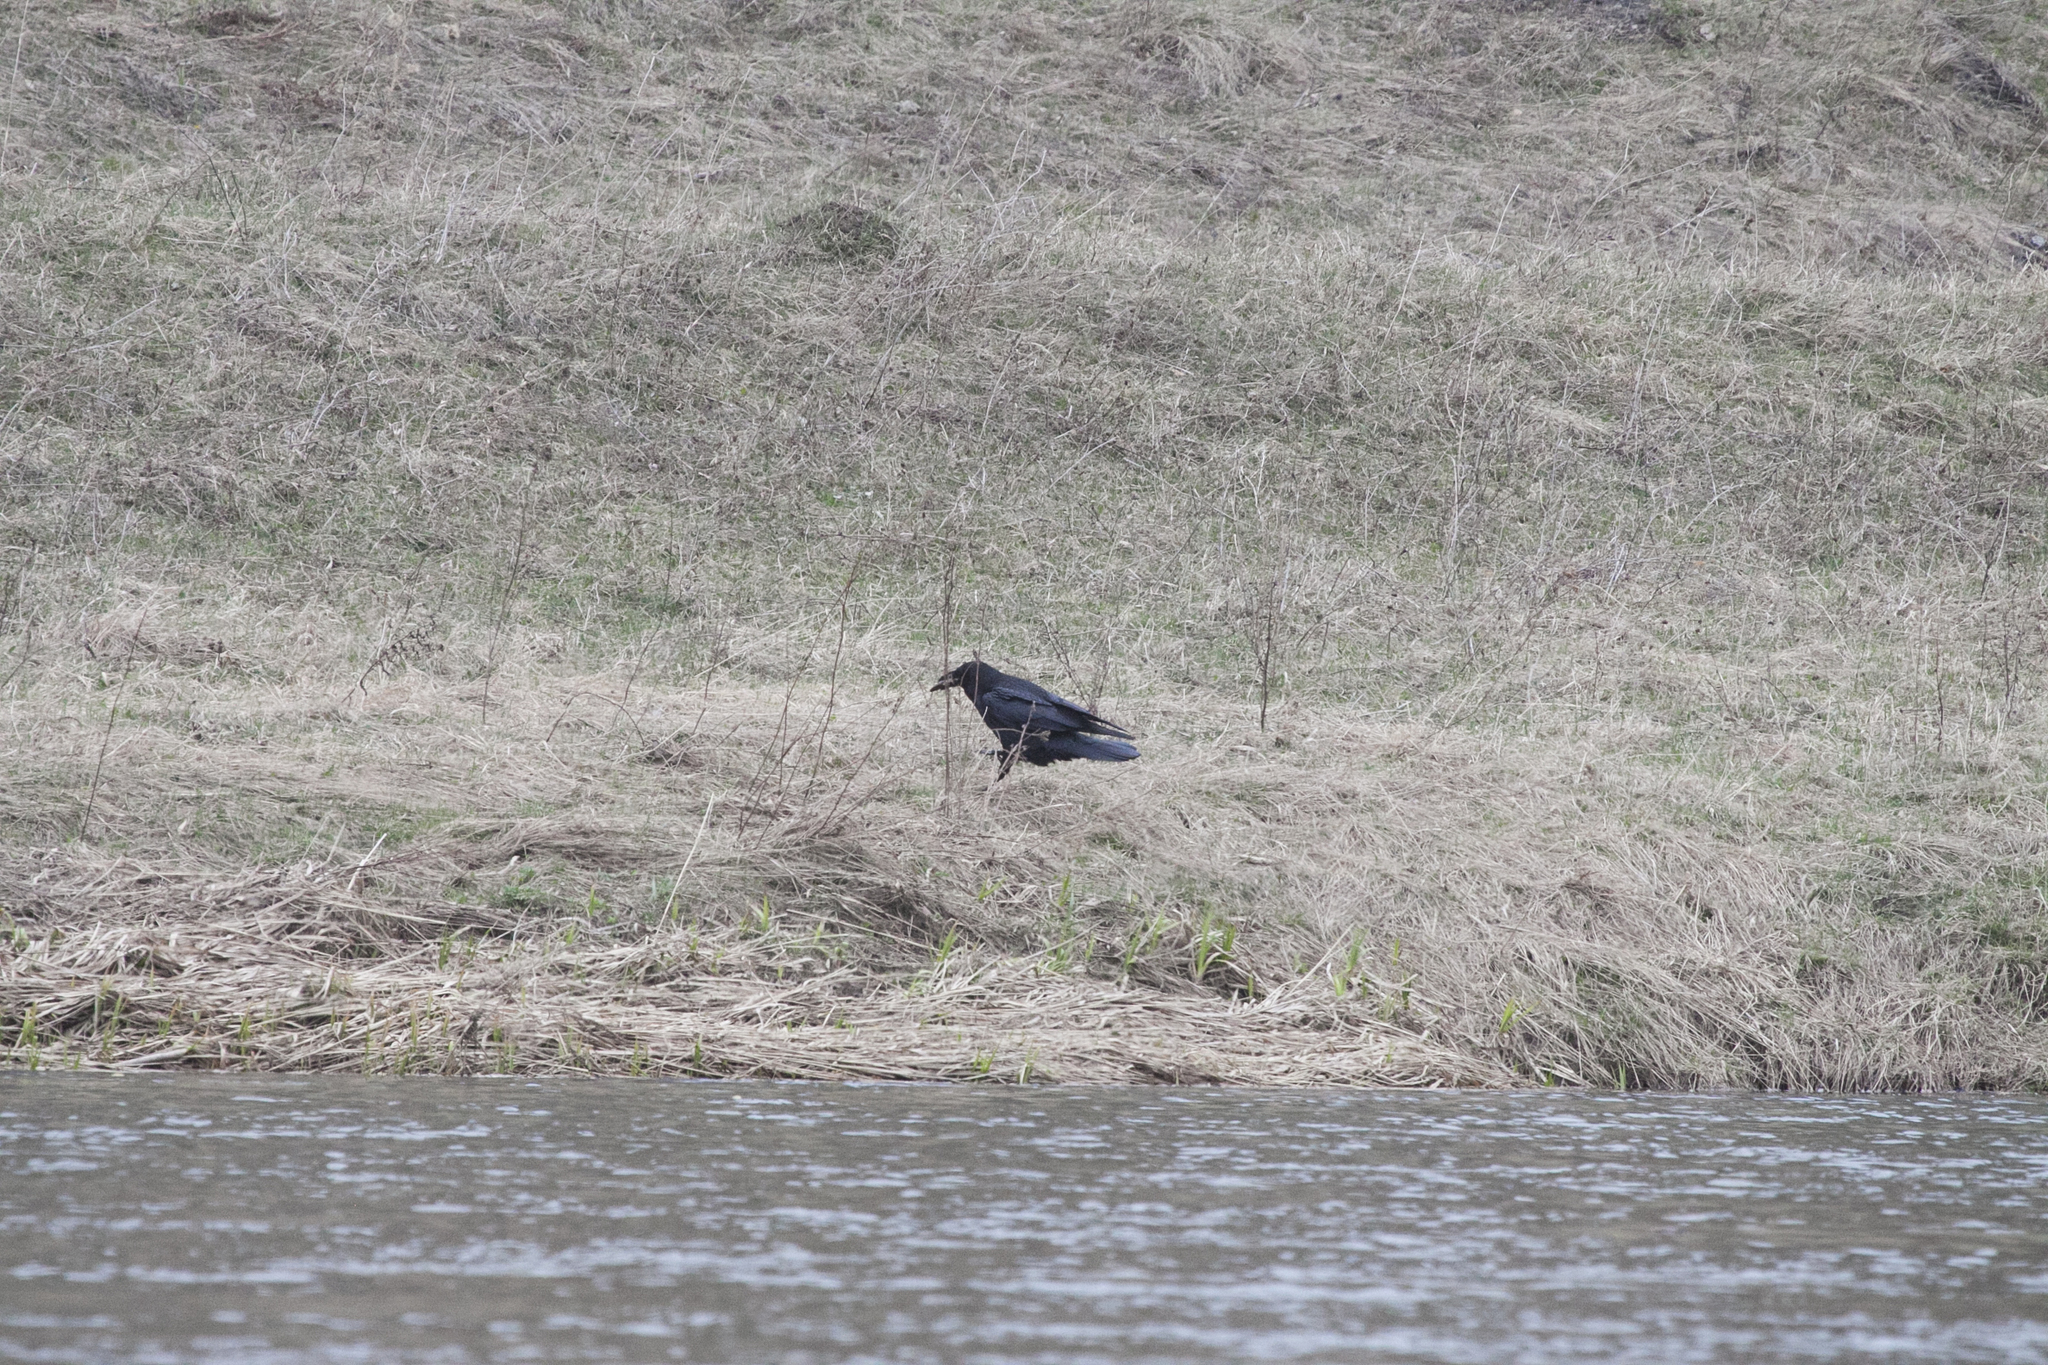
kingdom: Animalia
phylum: Chordata
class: Aves
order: Passeriformes
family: Corvidae
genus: Corvus
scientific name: Corvus corax
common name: Common raven
